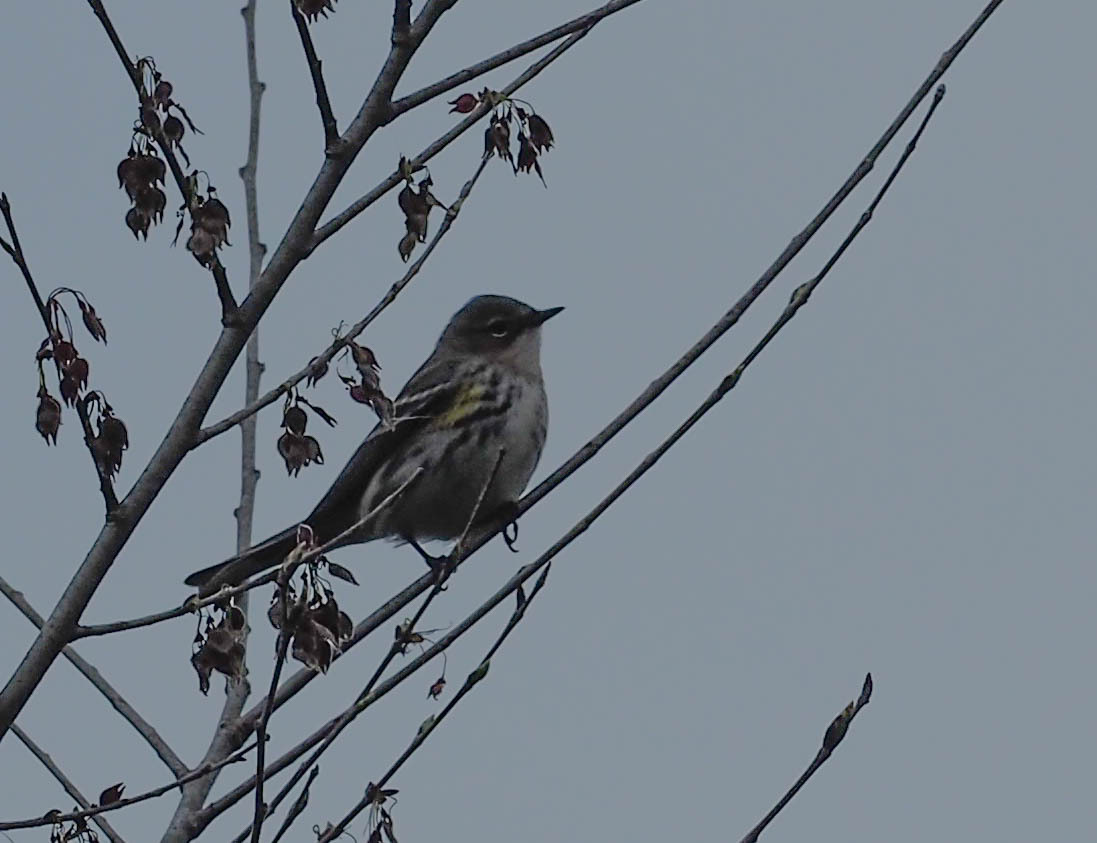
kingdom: Animalia
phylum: Chordata
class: Aves
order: Passeriformes
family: Parulidae
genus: Setophaga
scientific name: Setophaga coronata
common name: Myrtle warbler
